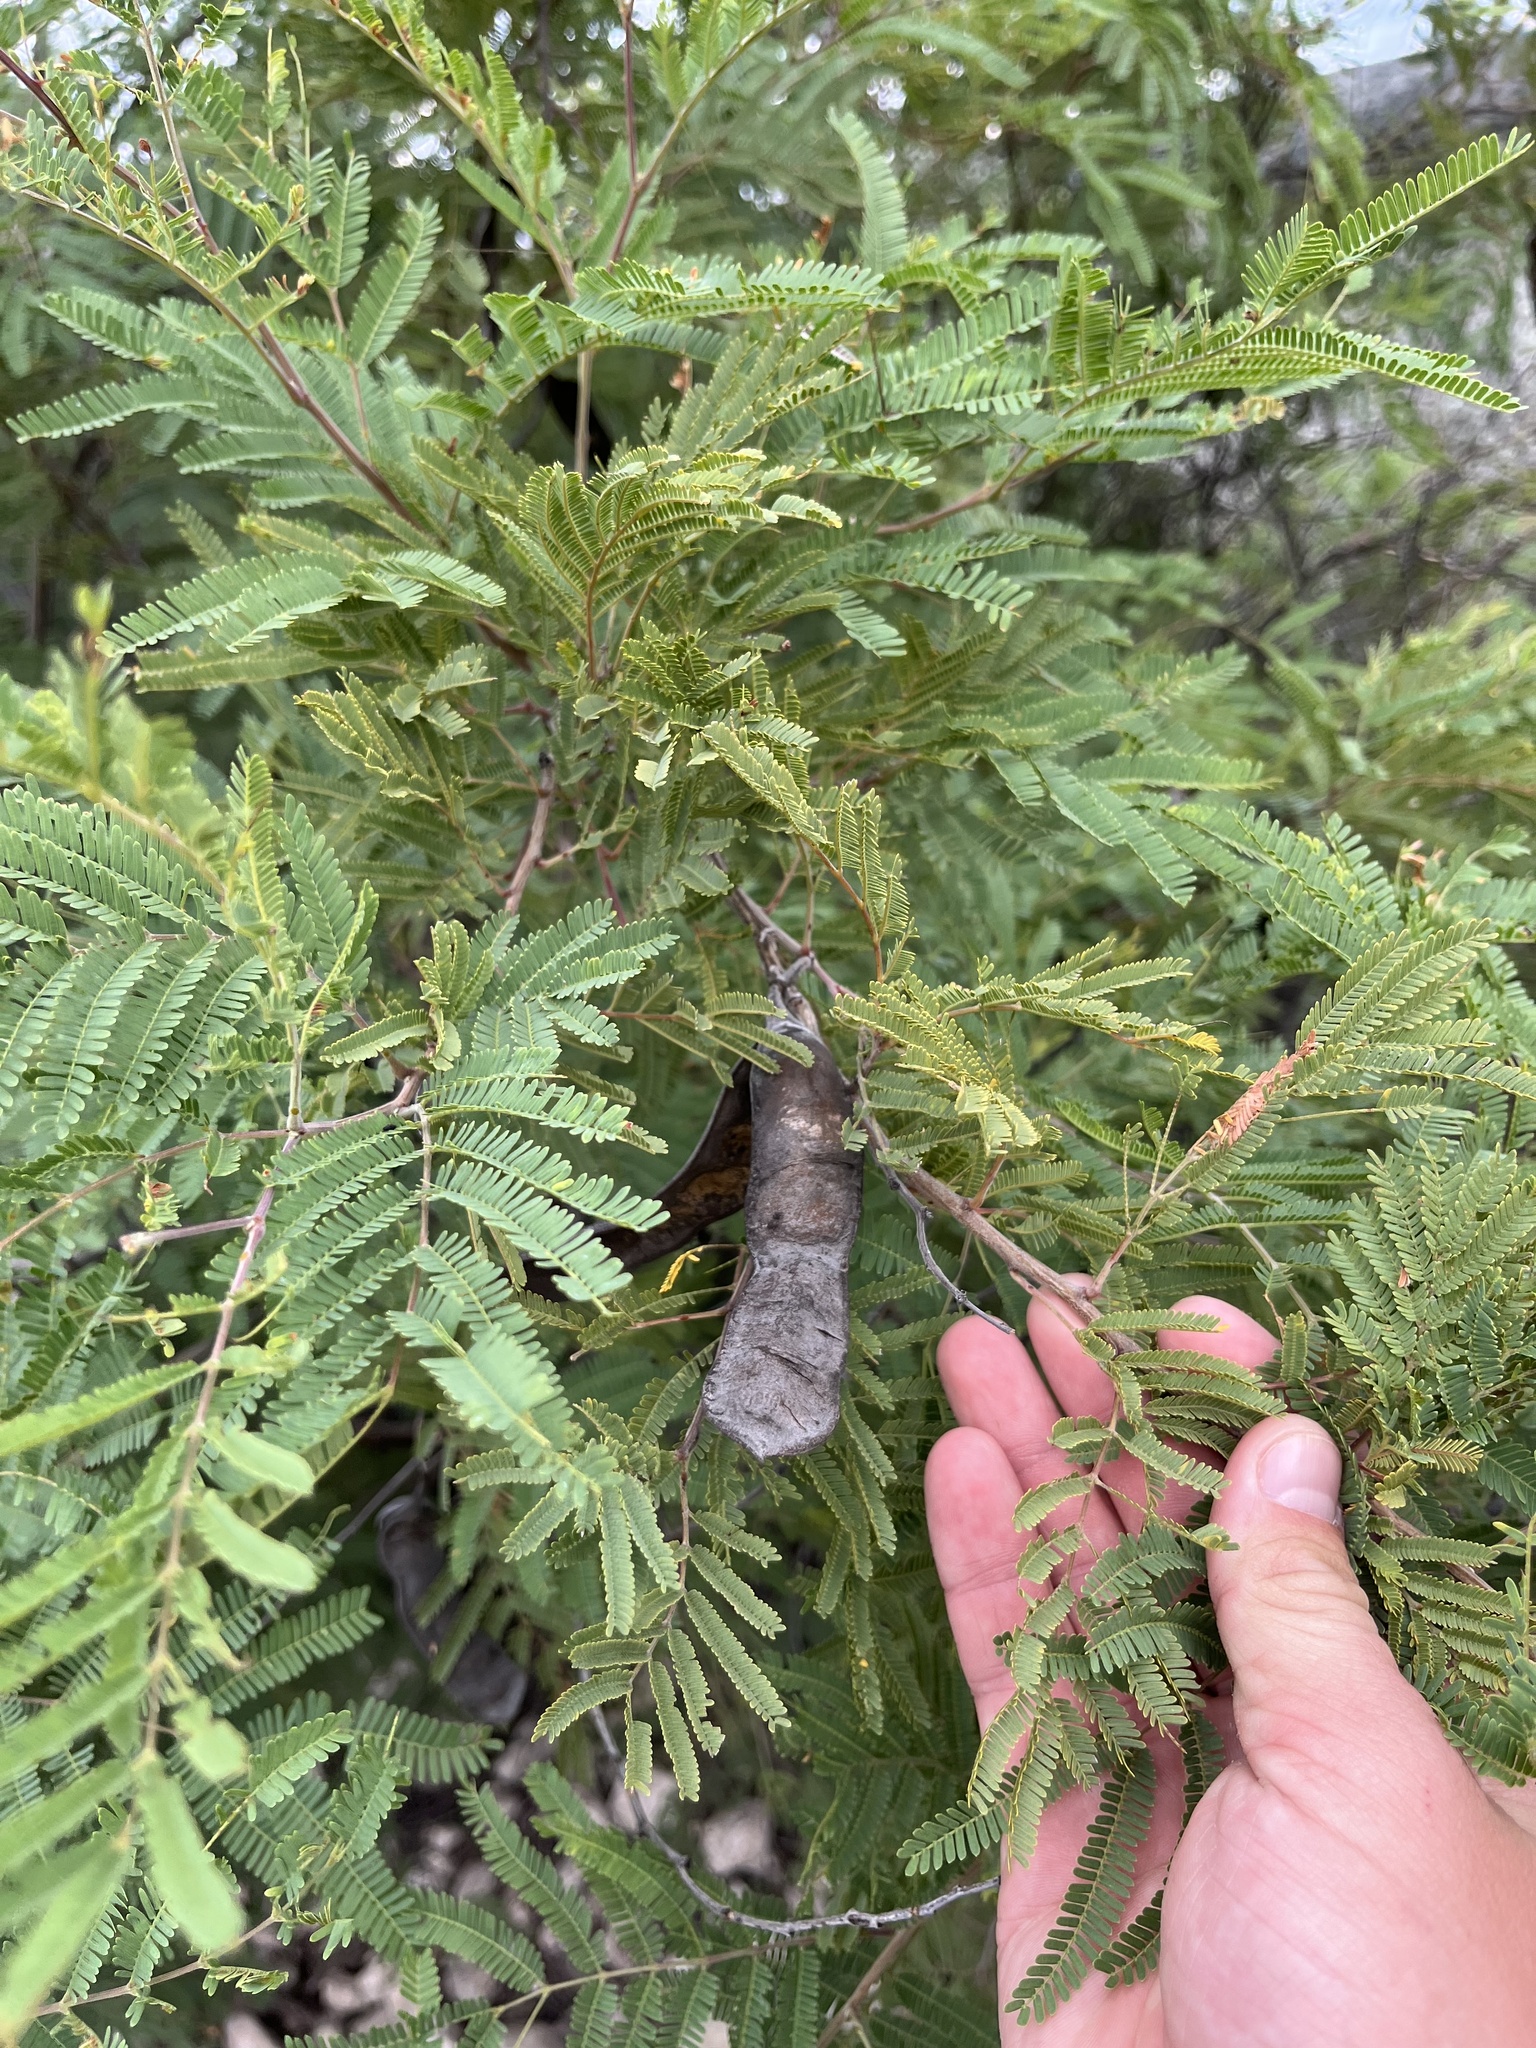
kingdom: Plantae
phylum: Tracheophyta
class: Magnoliopsida
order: Fabales
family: Fabaceae
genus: Senegalia
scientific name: Senegalia berlandieri
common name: Berlandier acacia
